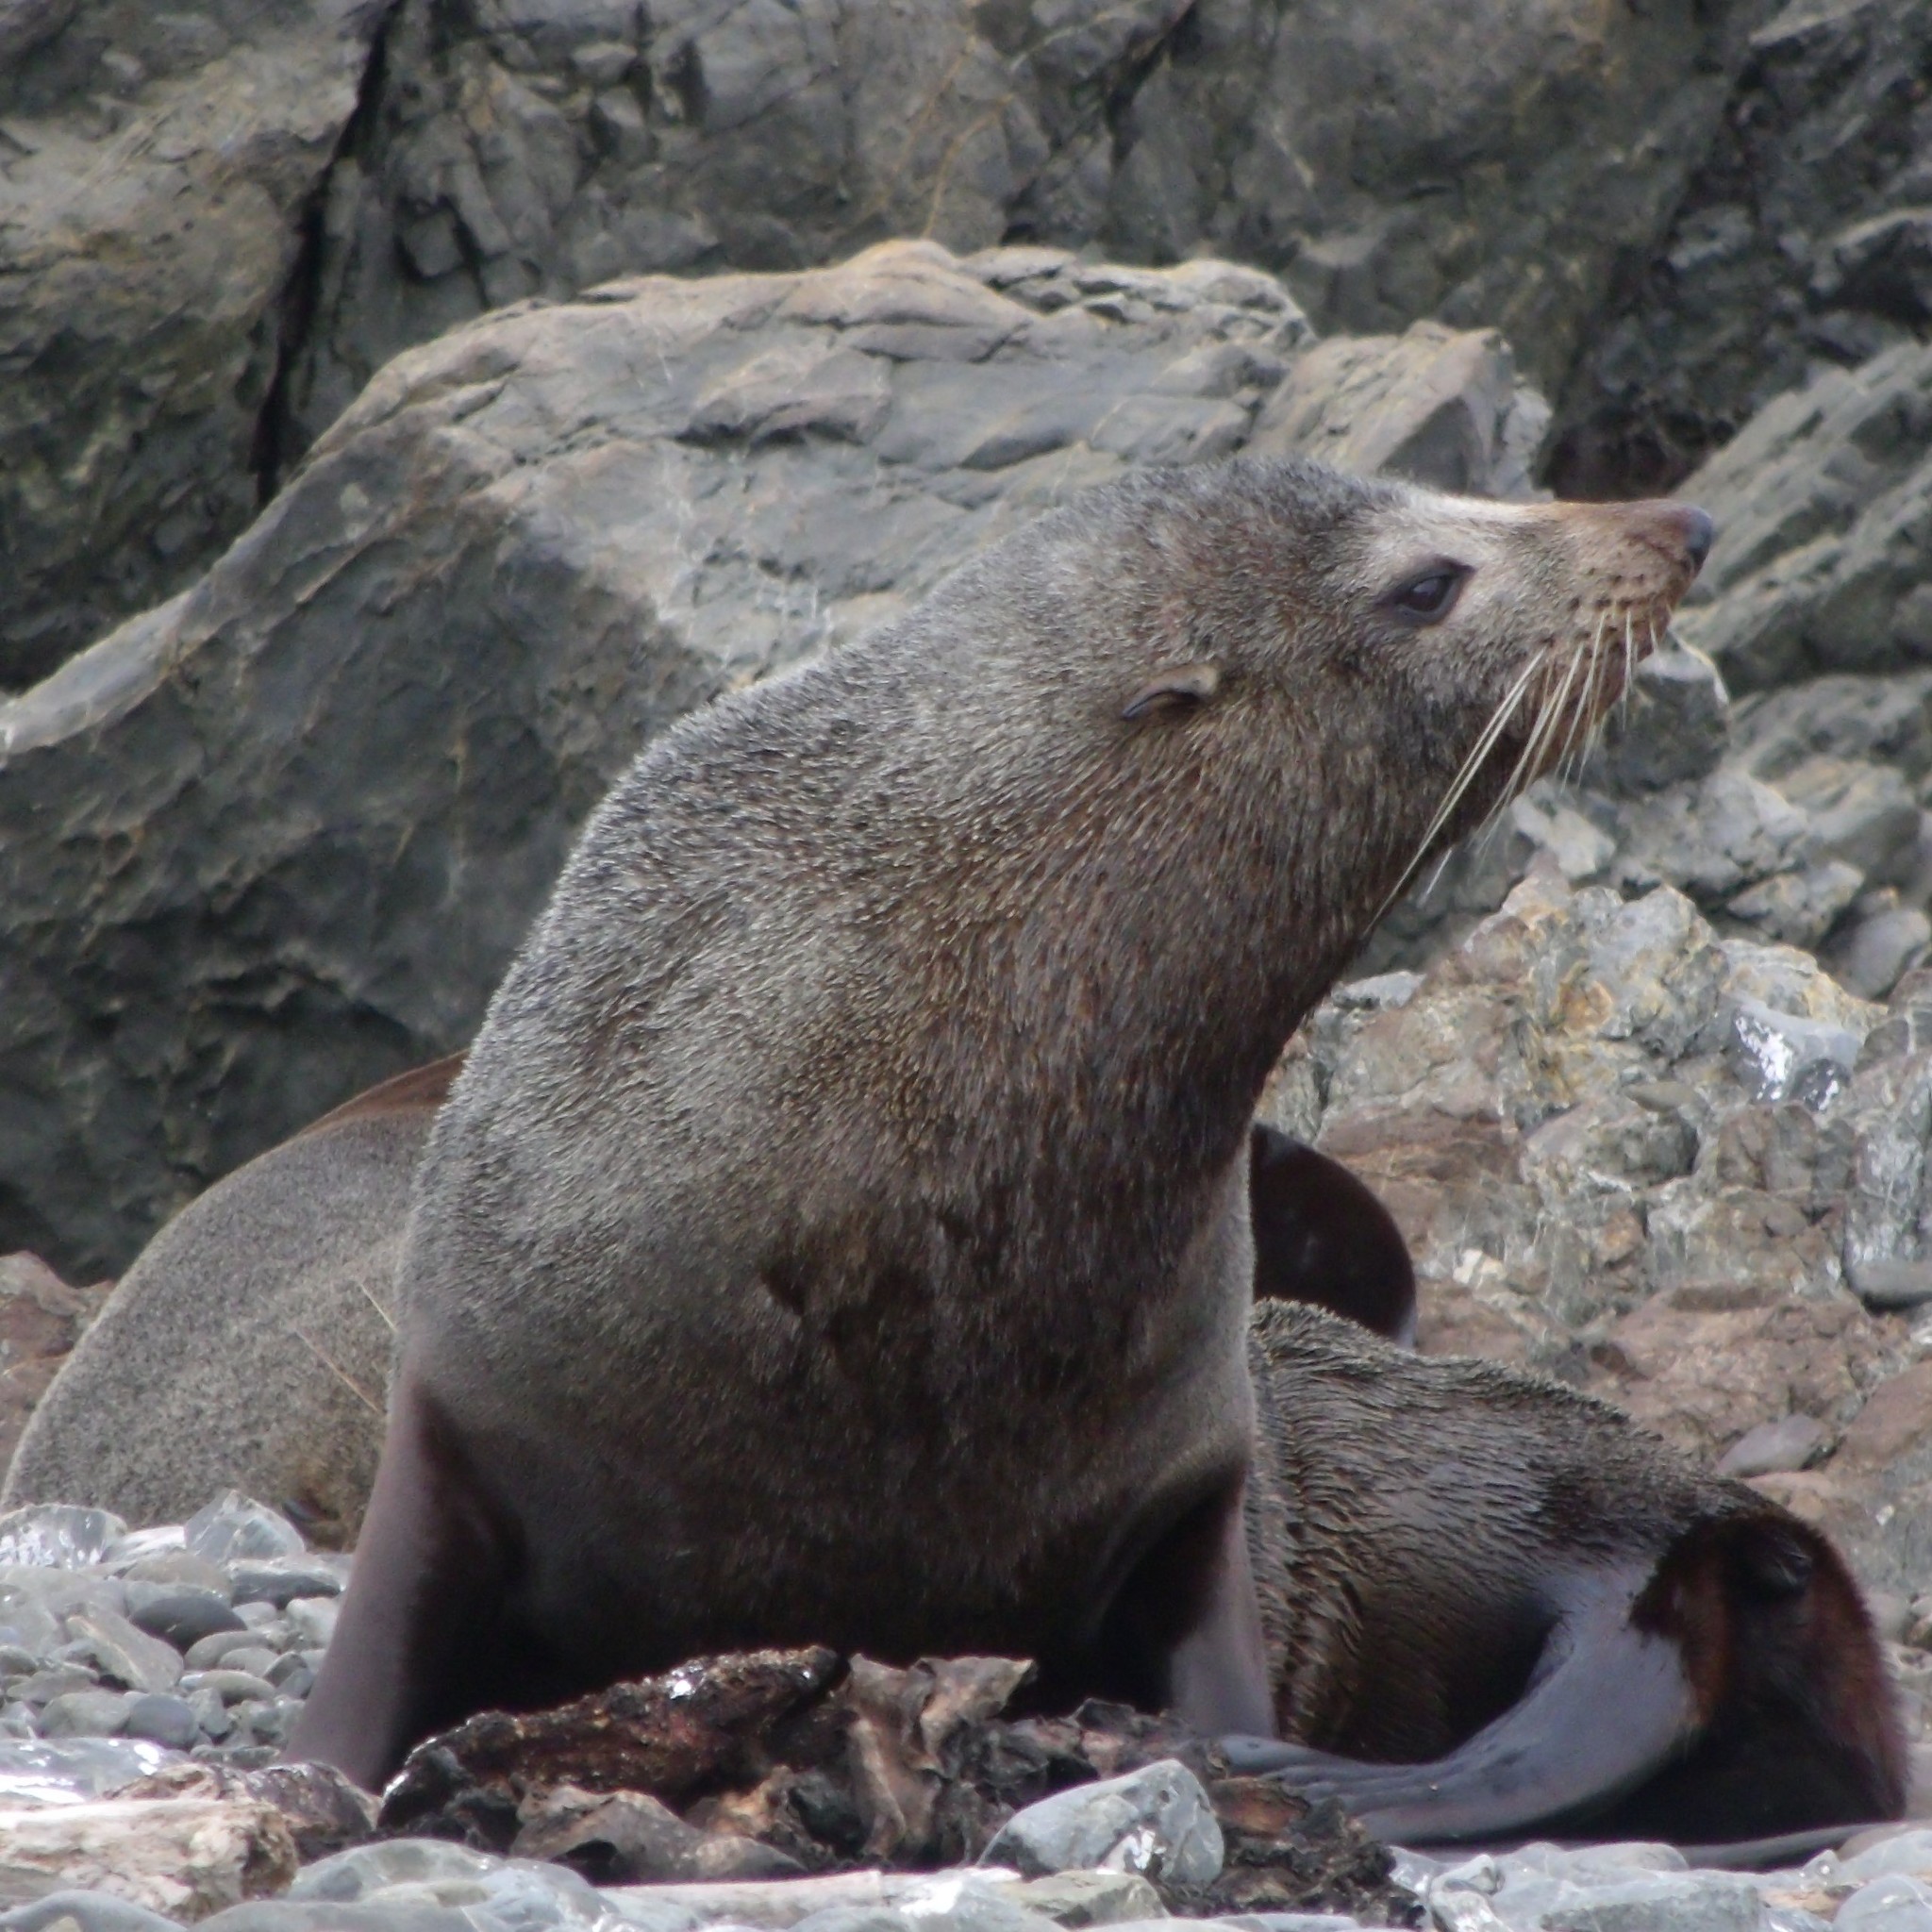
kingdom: Animalia
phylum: Chordata
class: Mammalia
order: Carnivora
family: Otariidae
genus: Arctocephalus
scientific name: Arctocephalus forsteri
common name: New zealand fur seal
